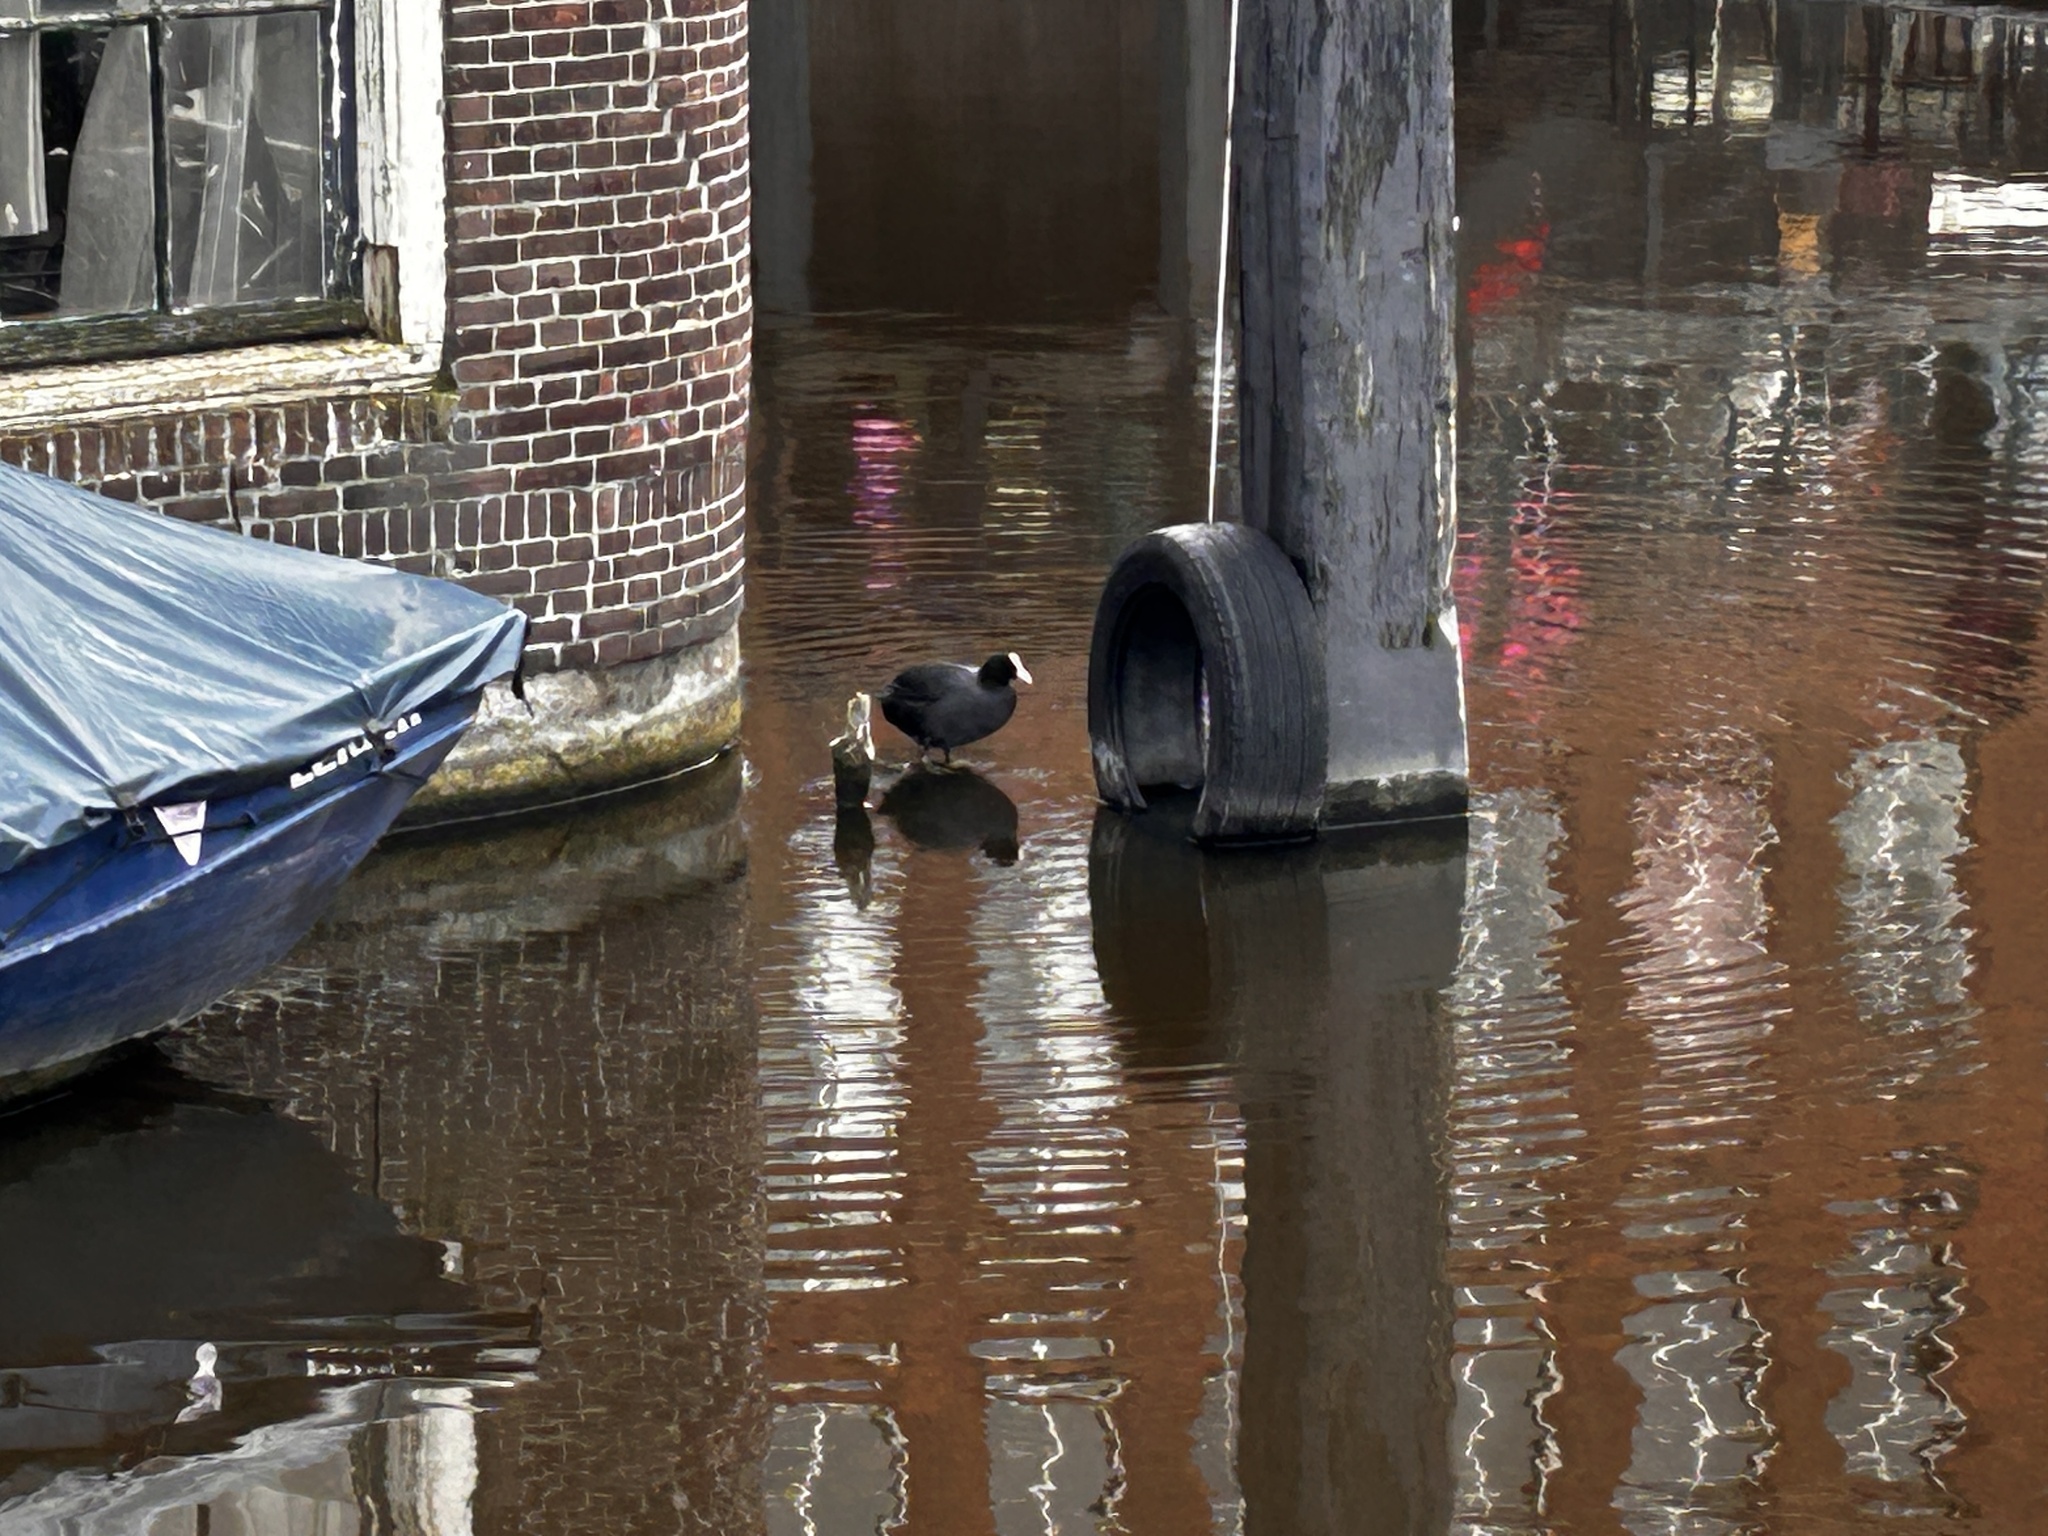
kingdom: Animalia
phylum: Chordata
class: Aves
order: Gruiformes
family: Rallidae
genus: Fulica
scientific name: Fulica atra
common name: Eurasian coot
